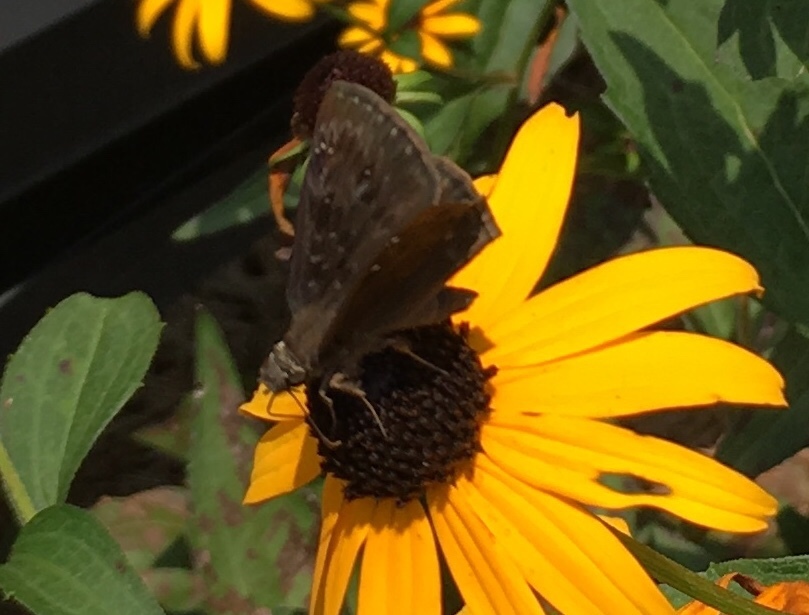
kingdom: Animalia
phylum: Arthropoda
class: Insecta
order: Lepidoptera
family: Hesperiidae
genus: Erynnis
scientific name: Erynnis horatius
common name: Horace's duskywing
